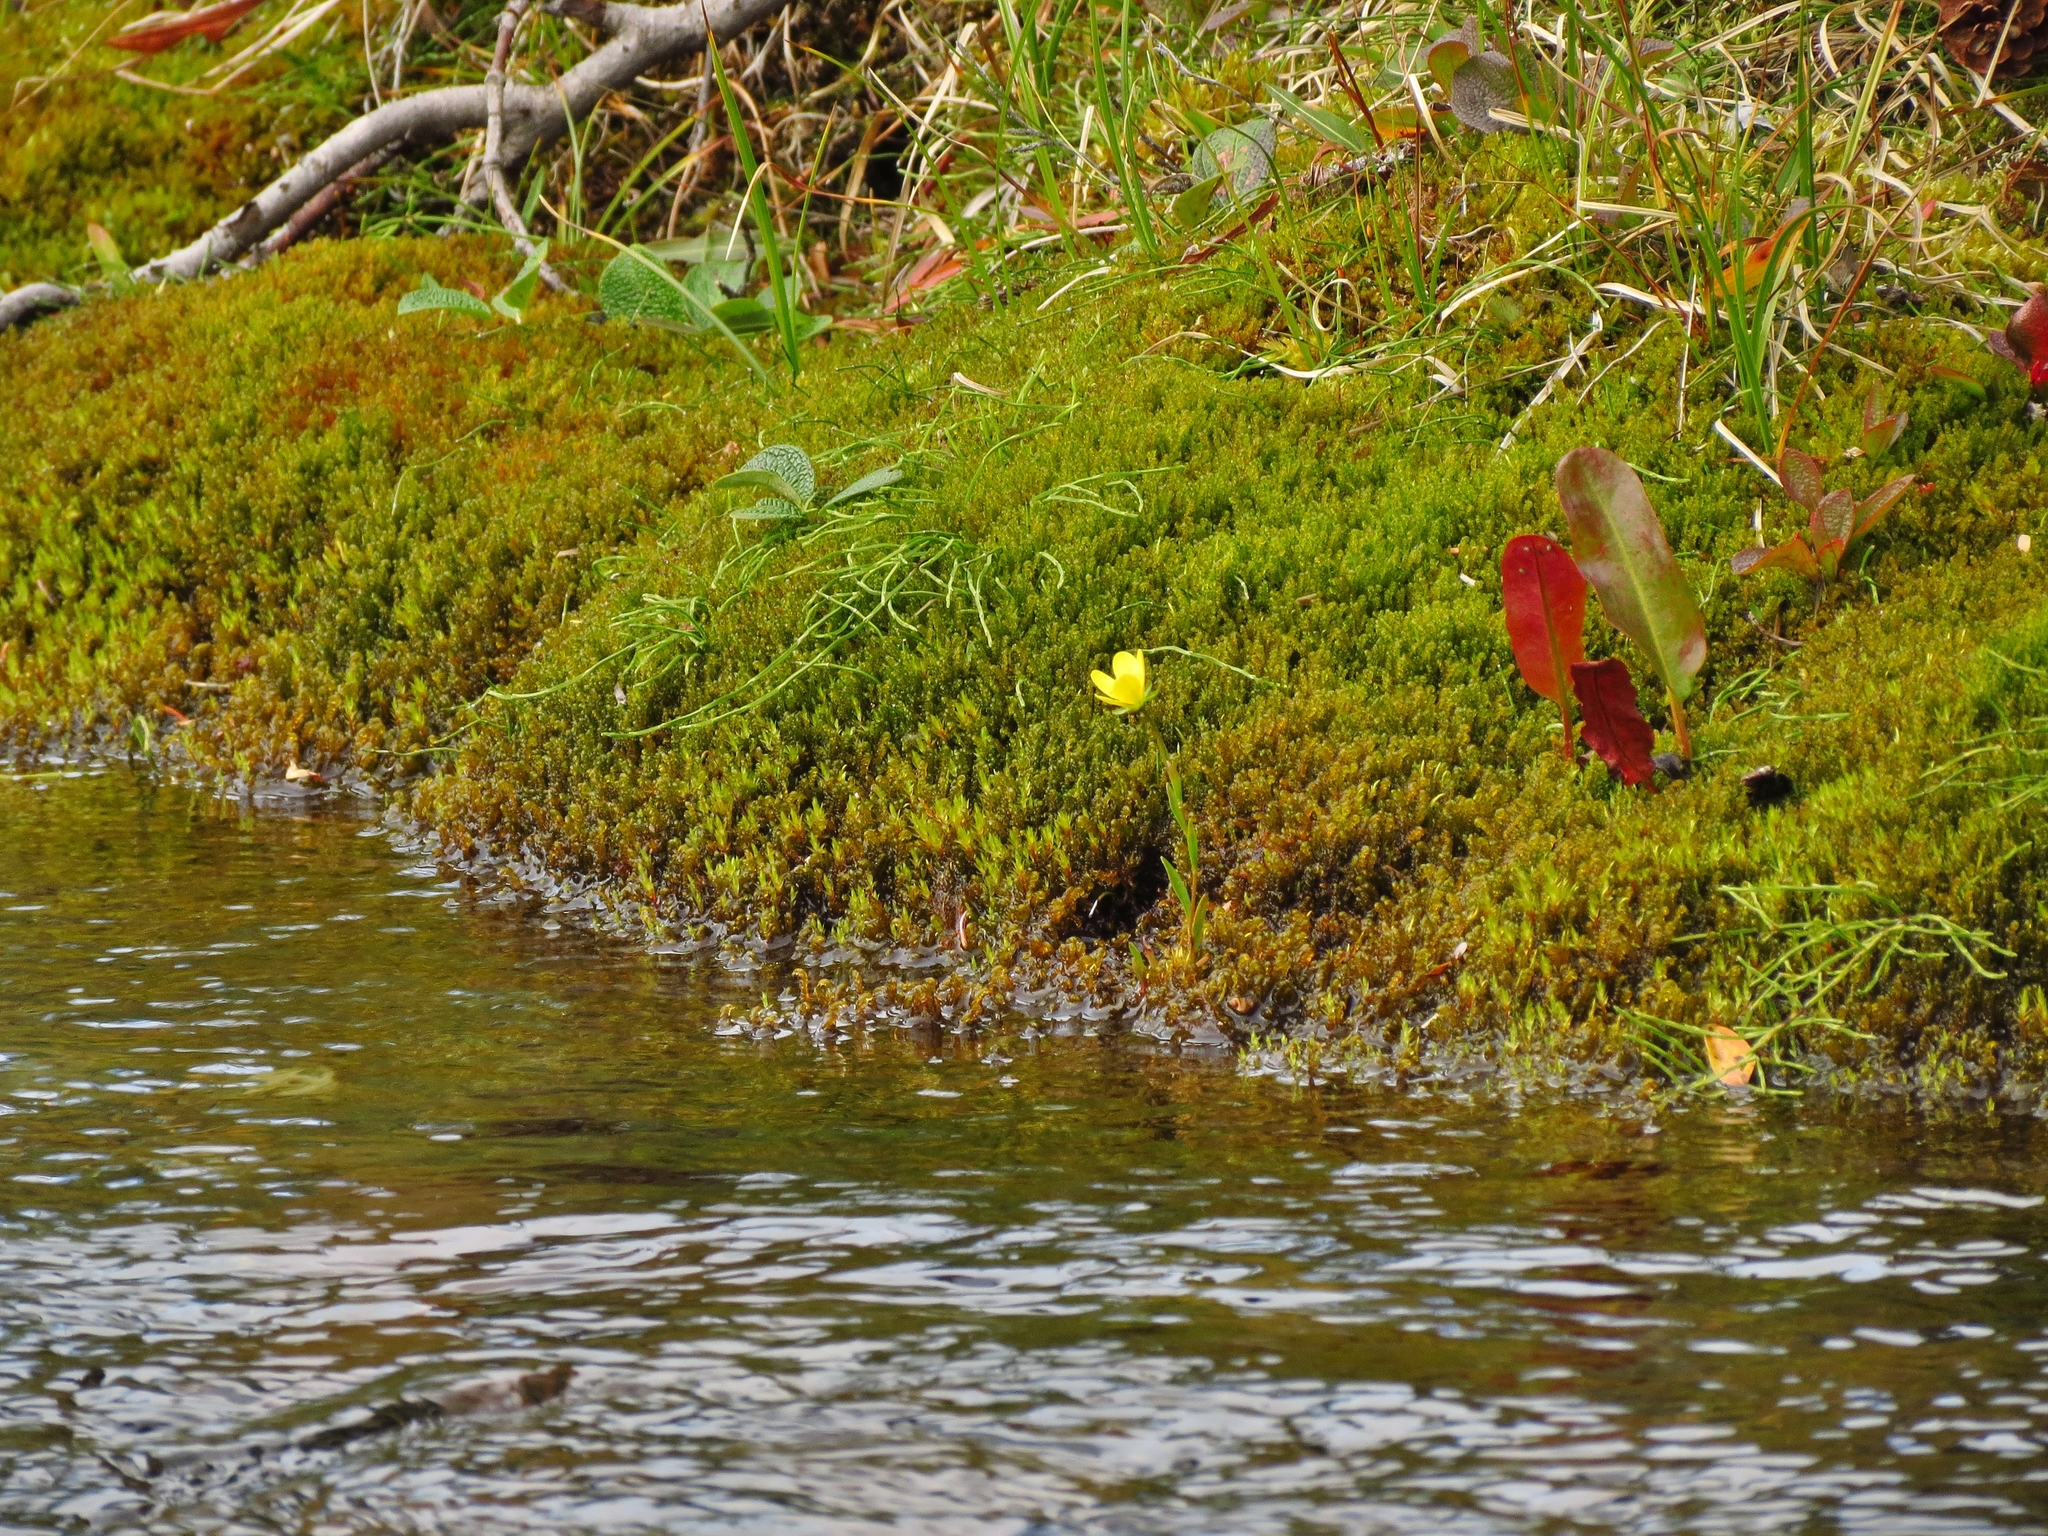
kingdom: Plantae
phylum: Tracheophyta
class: Magnoliopsida
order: Saxifragales
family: Saxifragaceae
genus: Saxifraga
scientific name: Saxifraga hirculus
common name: Yellow marsh saxifrage
